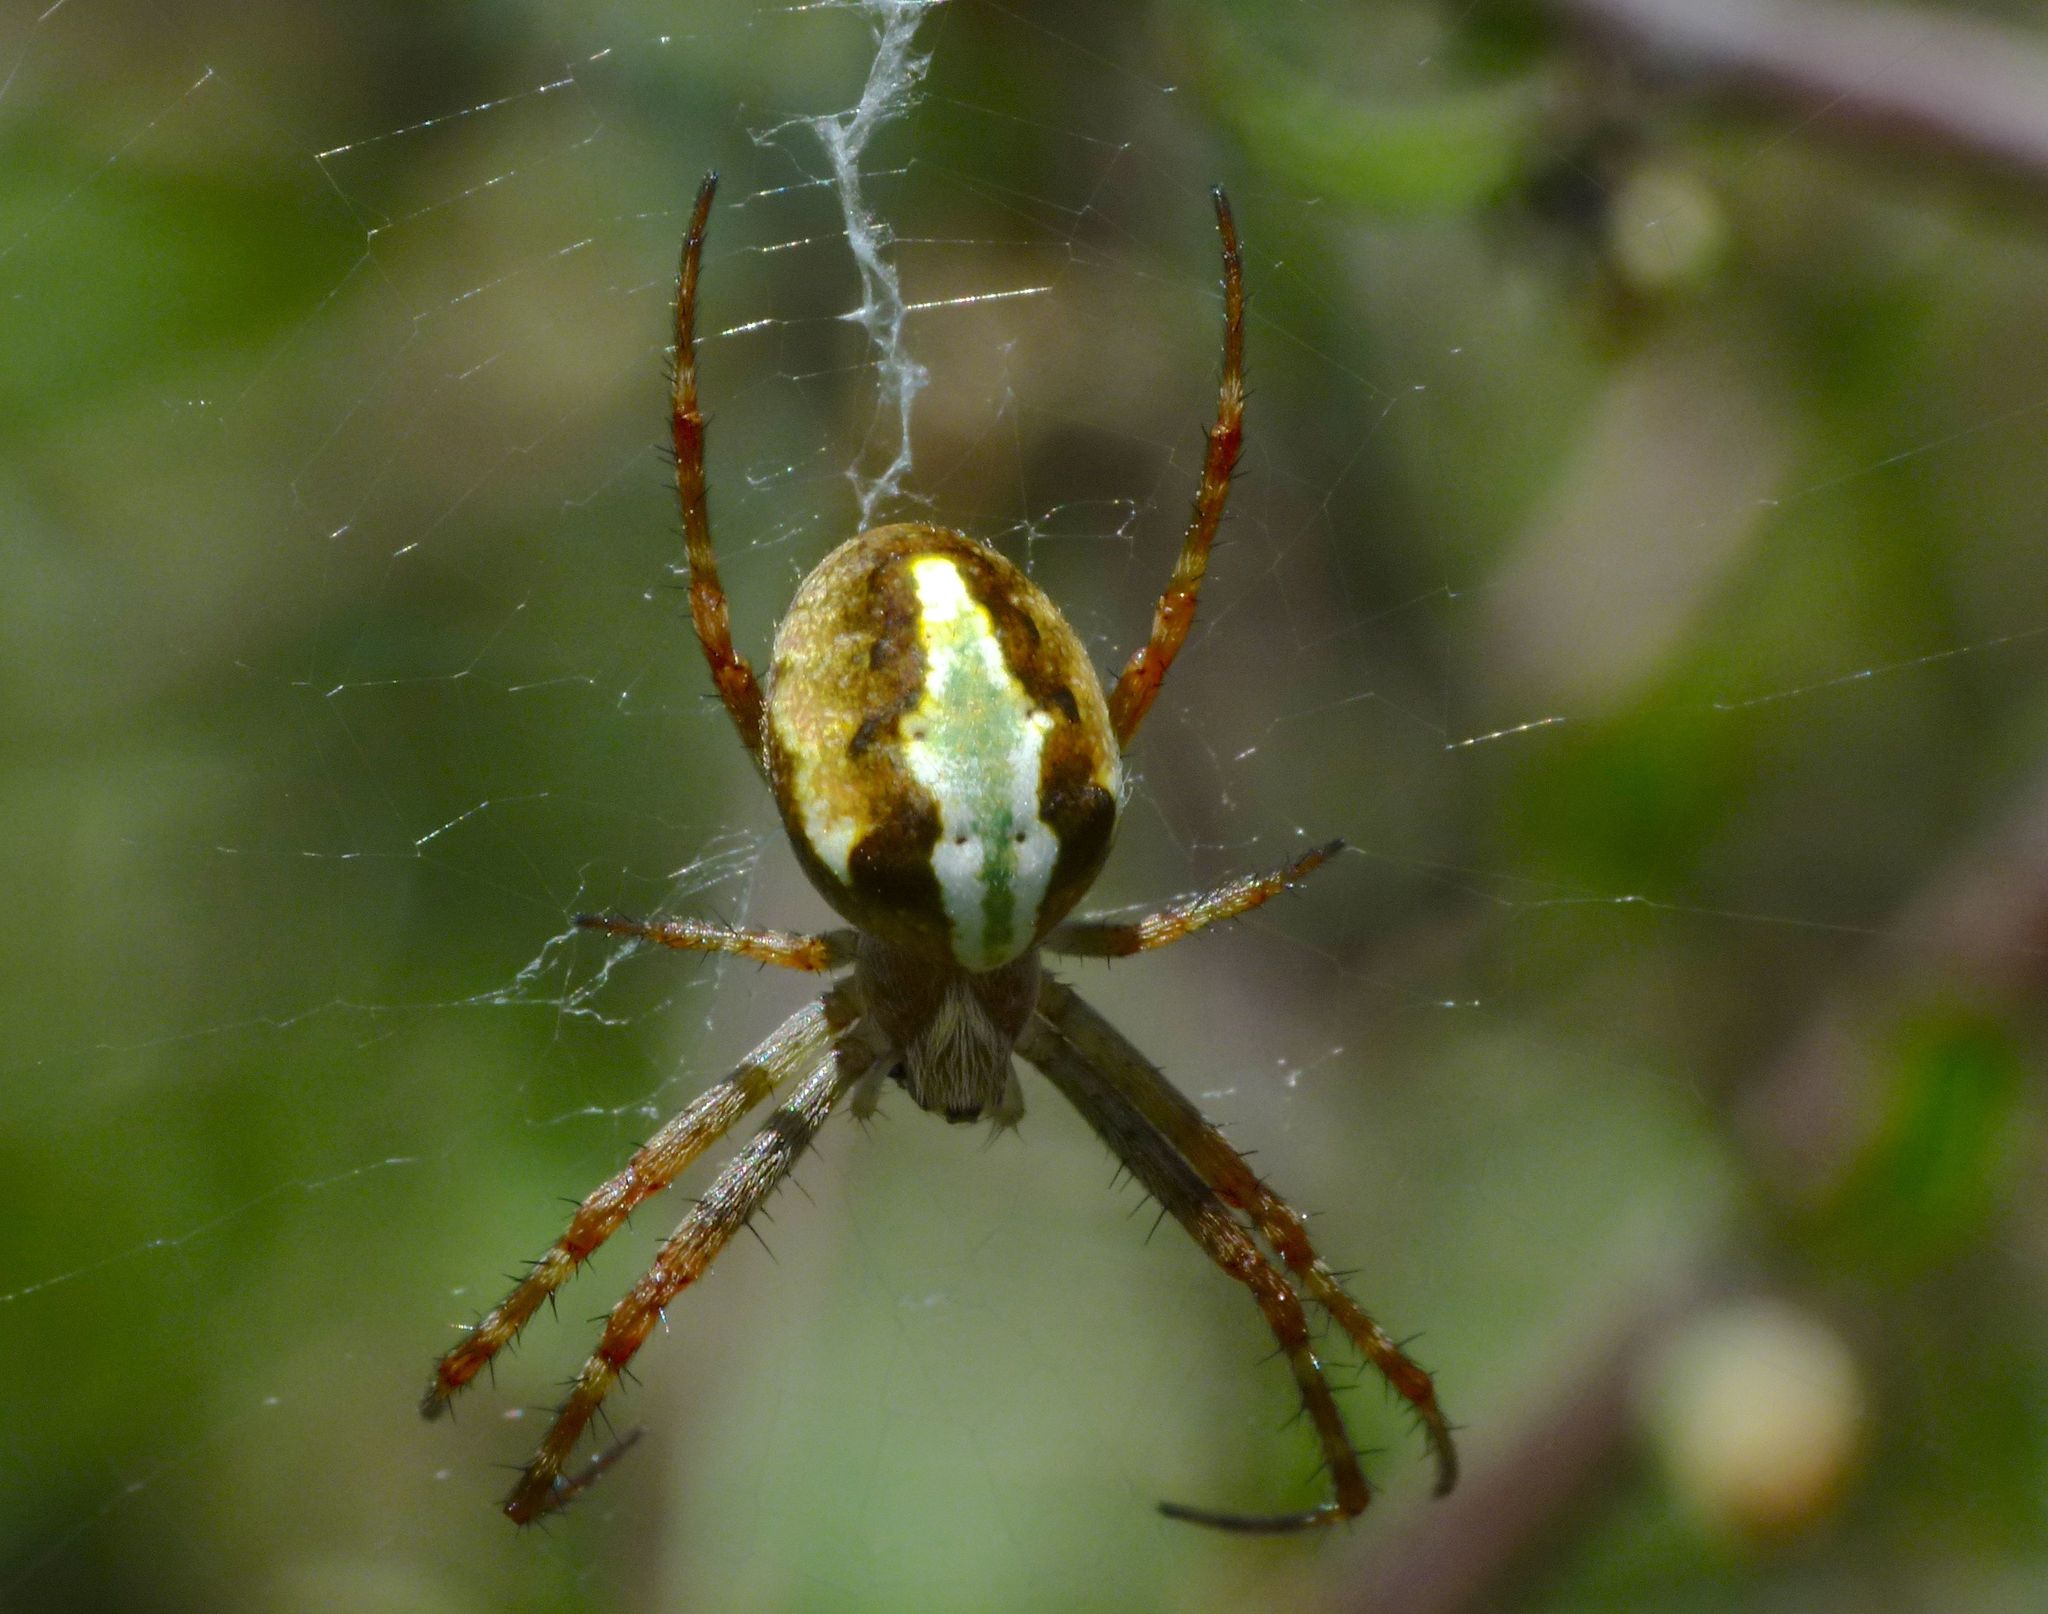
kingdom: Animalia
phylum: Arthropoda
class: Arachnida
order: Araneae
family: Araneidae
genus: Novaranea
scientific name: Novaranea queribunda
